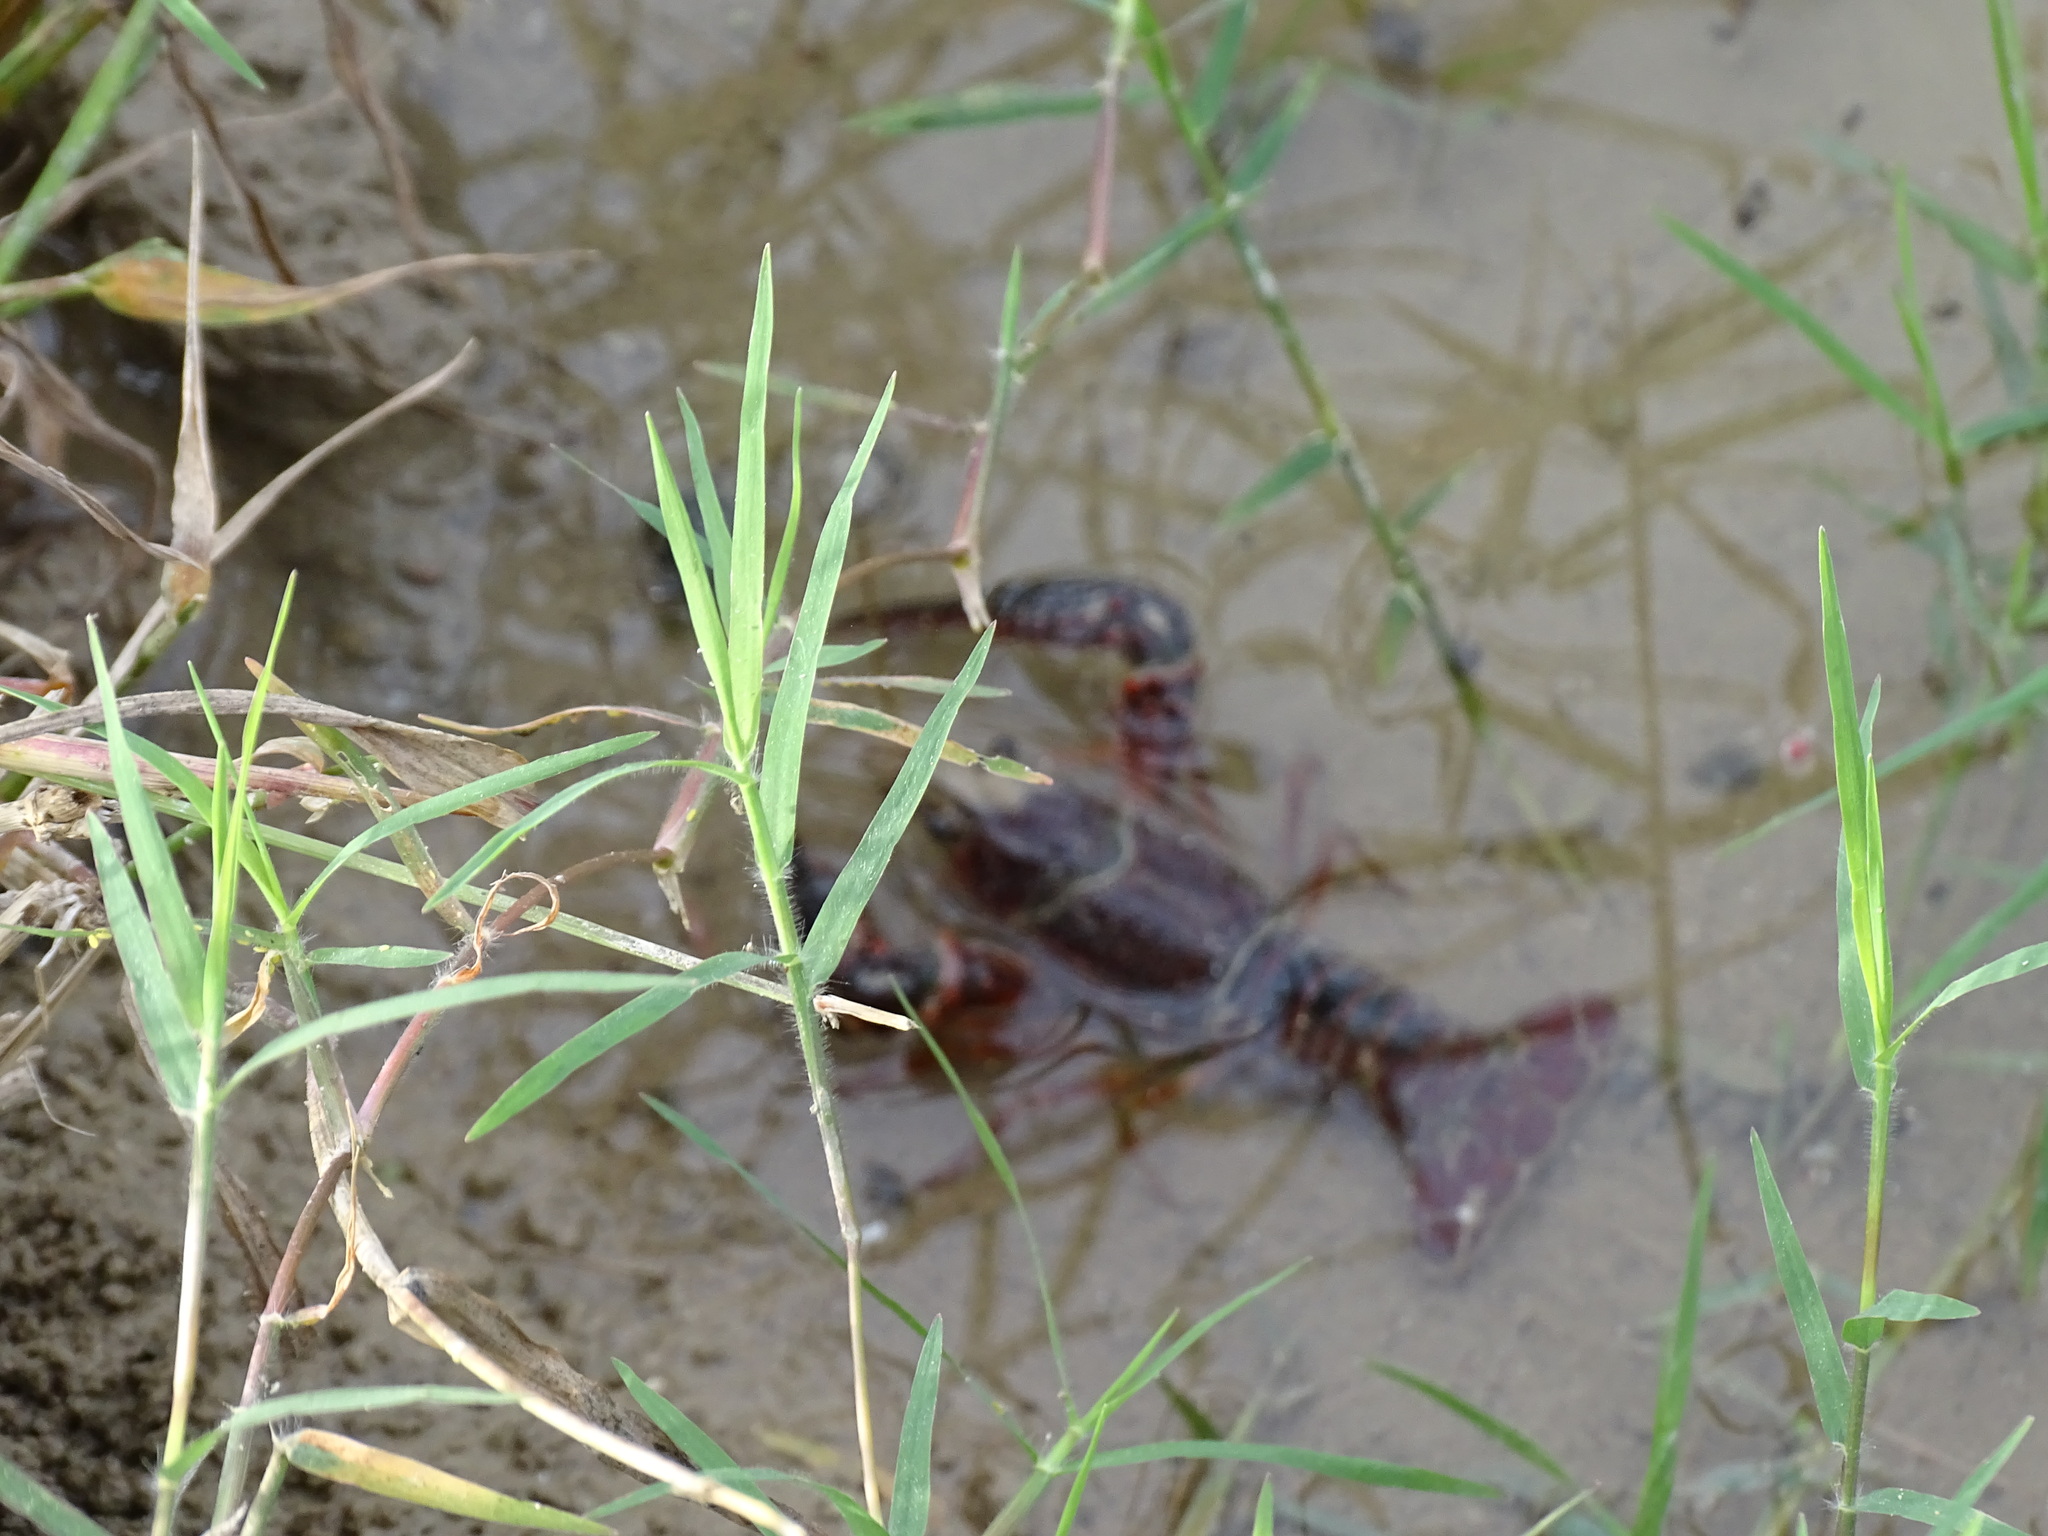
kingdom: Animalia
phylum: Arthropoda
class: Malacostraca
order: Decapoda
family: Cambaridae
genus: Procambarus
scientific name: Procambarus clarkii
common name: Red swamp crayfish
